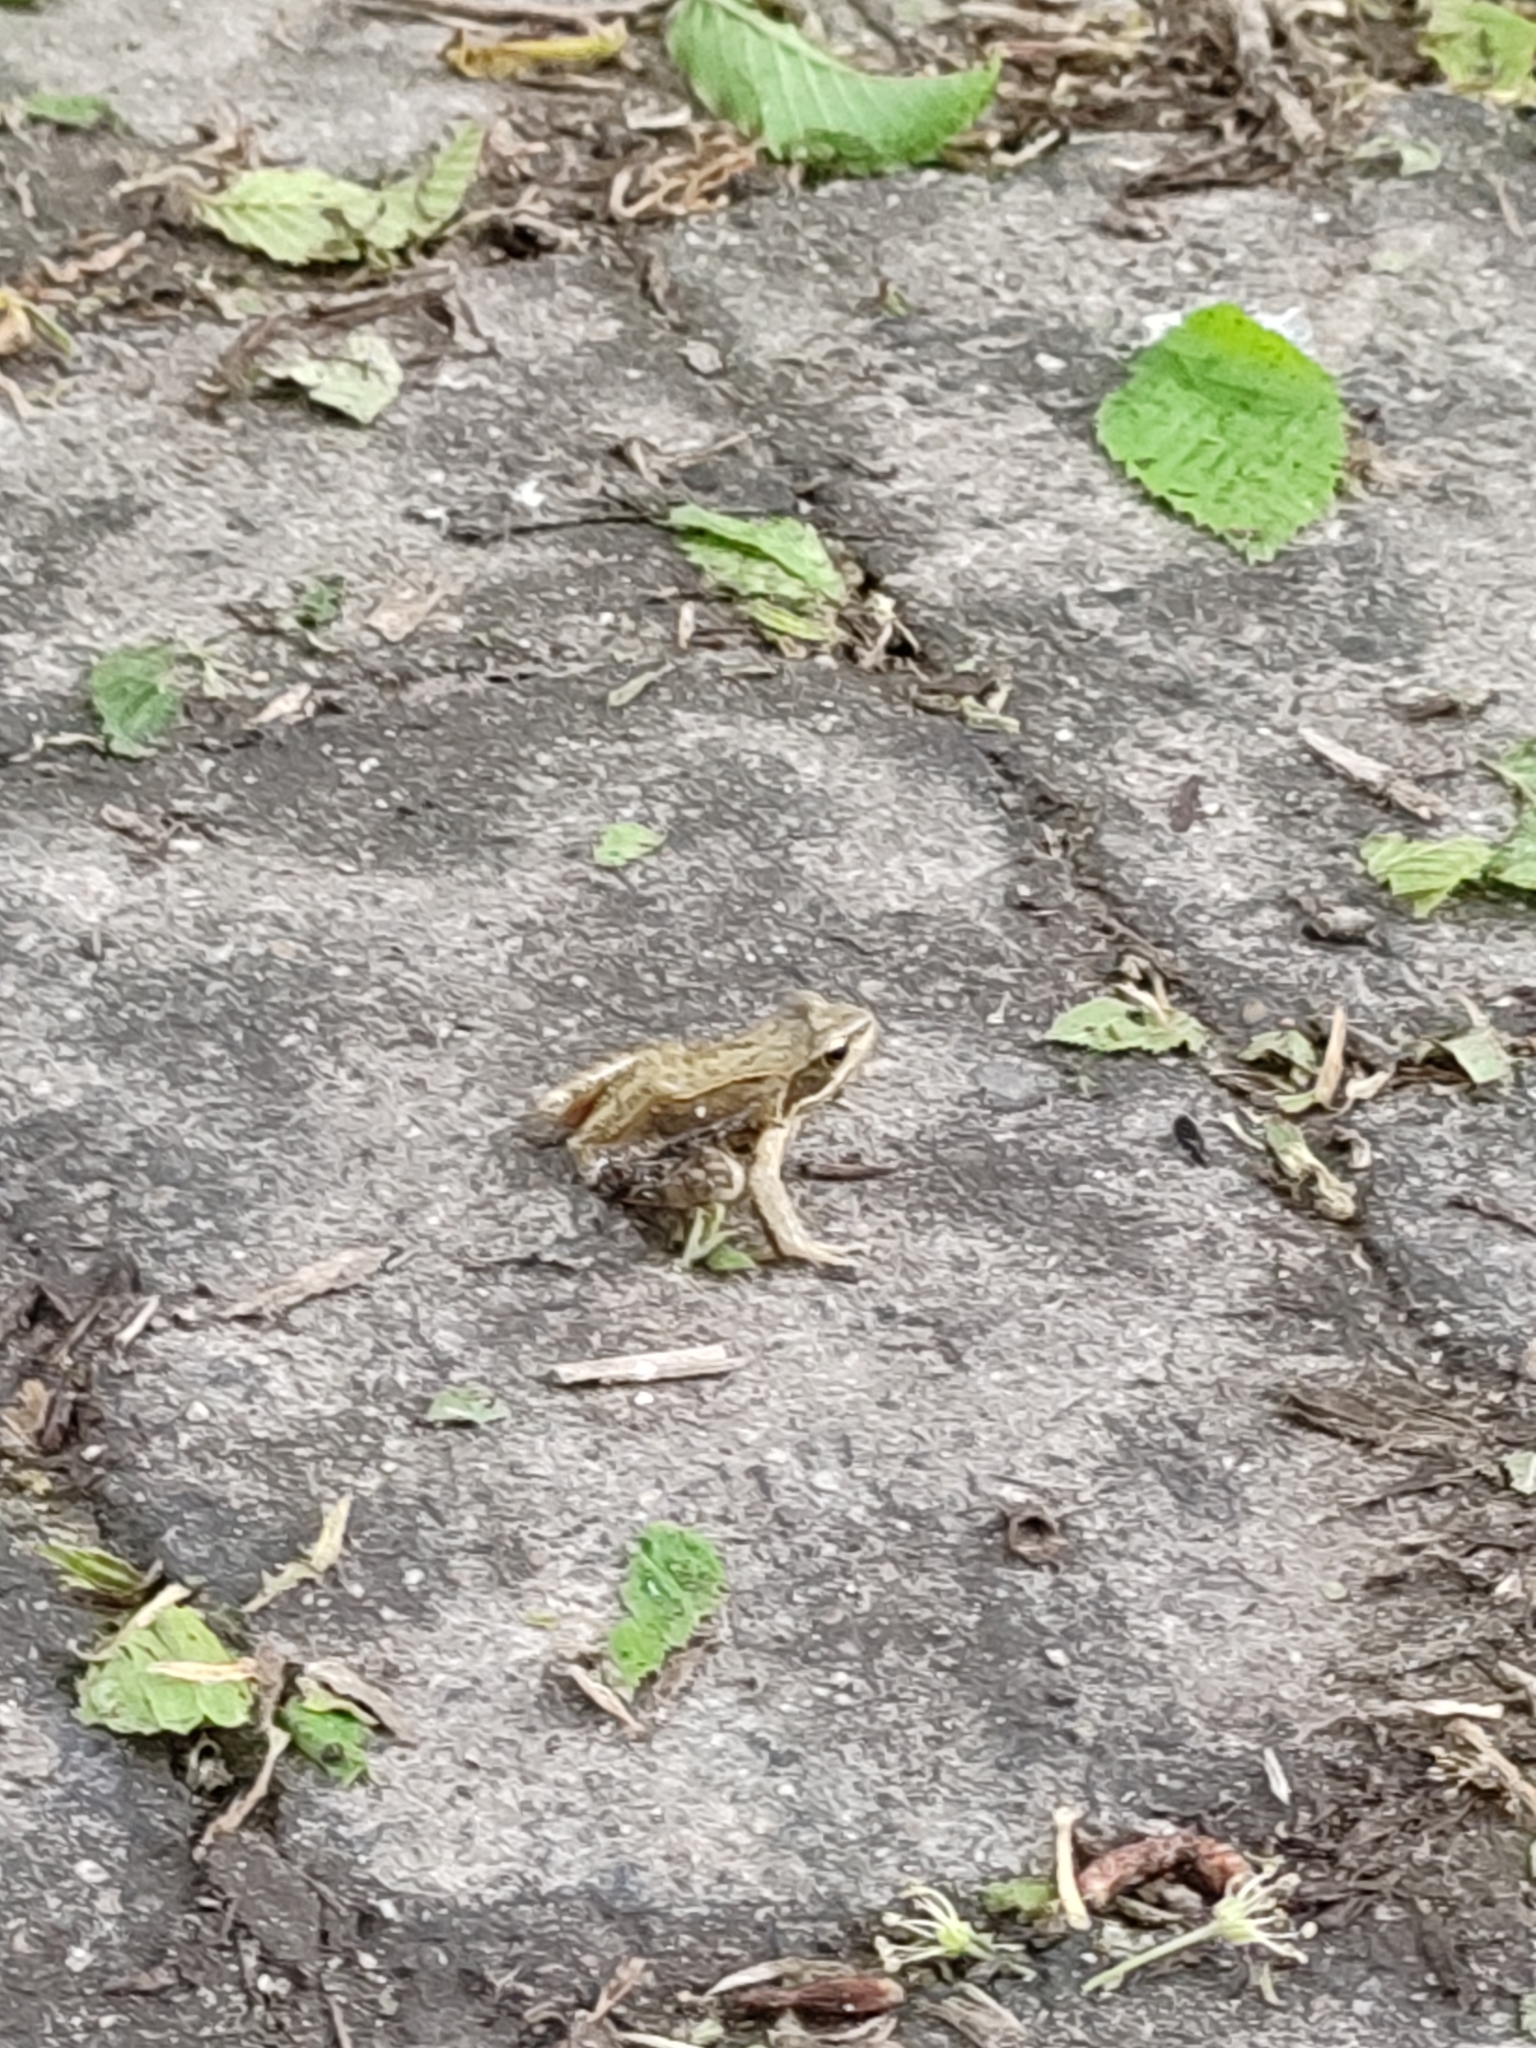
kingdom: Animalia
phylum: Chordata
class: Amphibia
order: Anura
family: Ranidae
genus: Rana
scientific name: Rana temporaria
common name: Common frog
